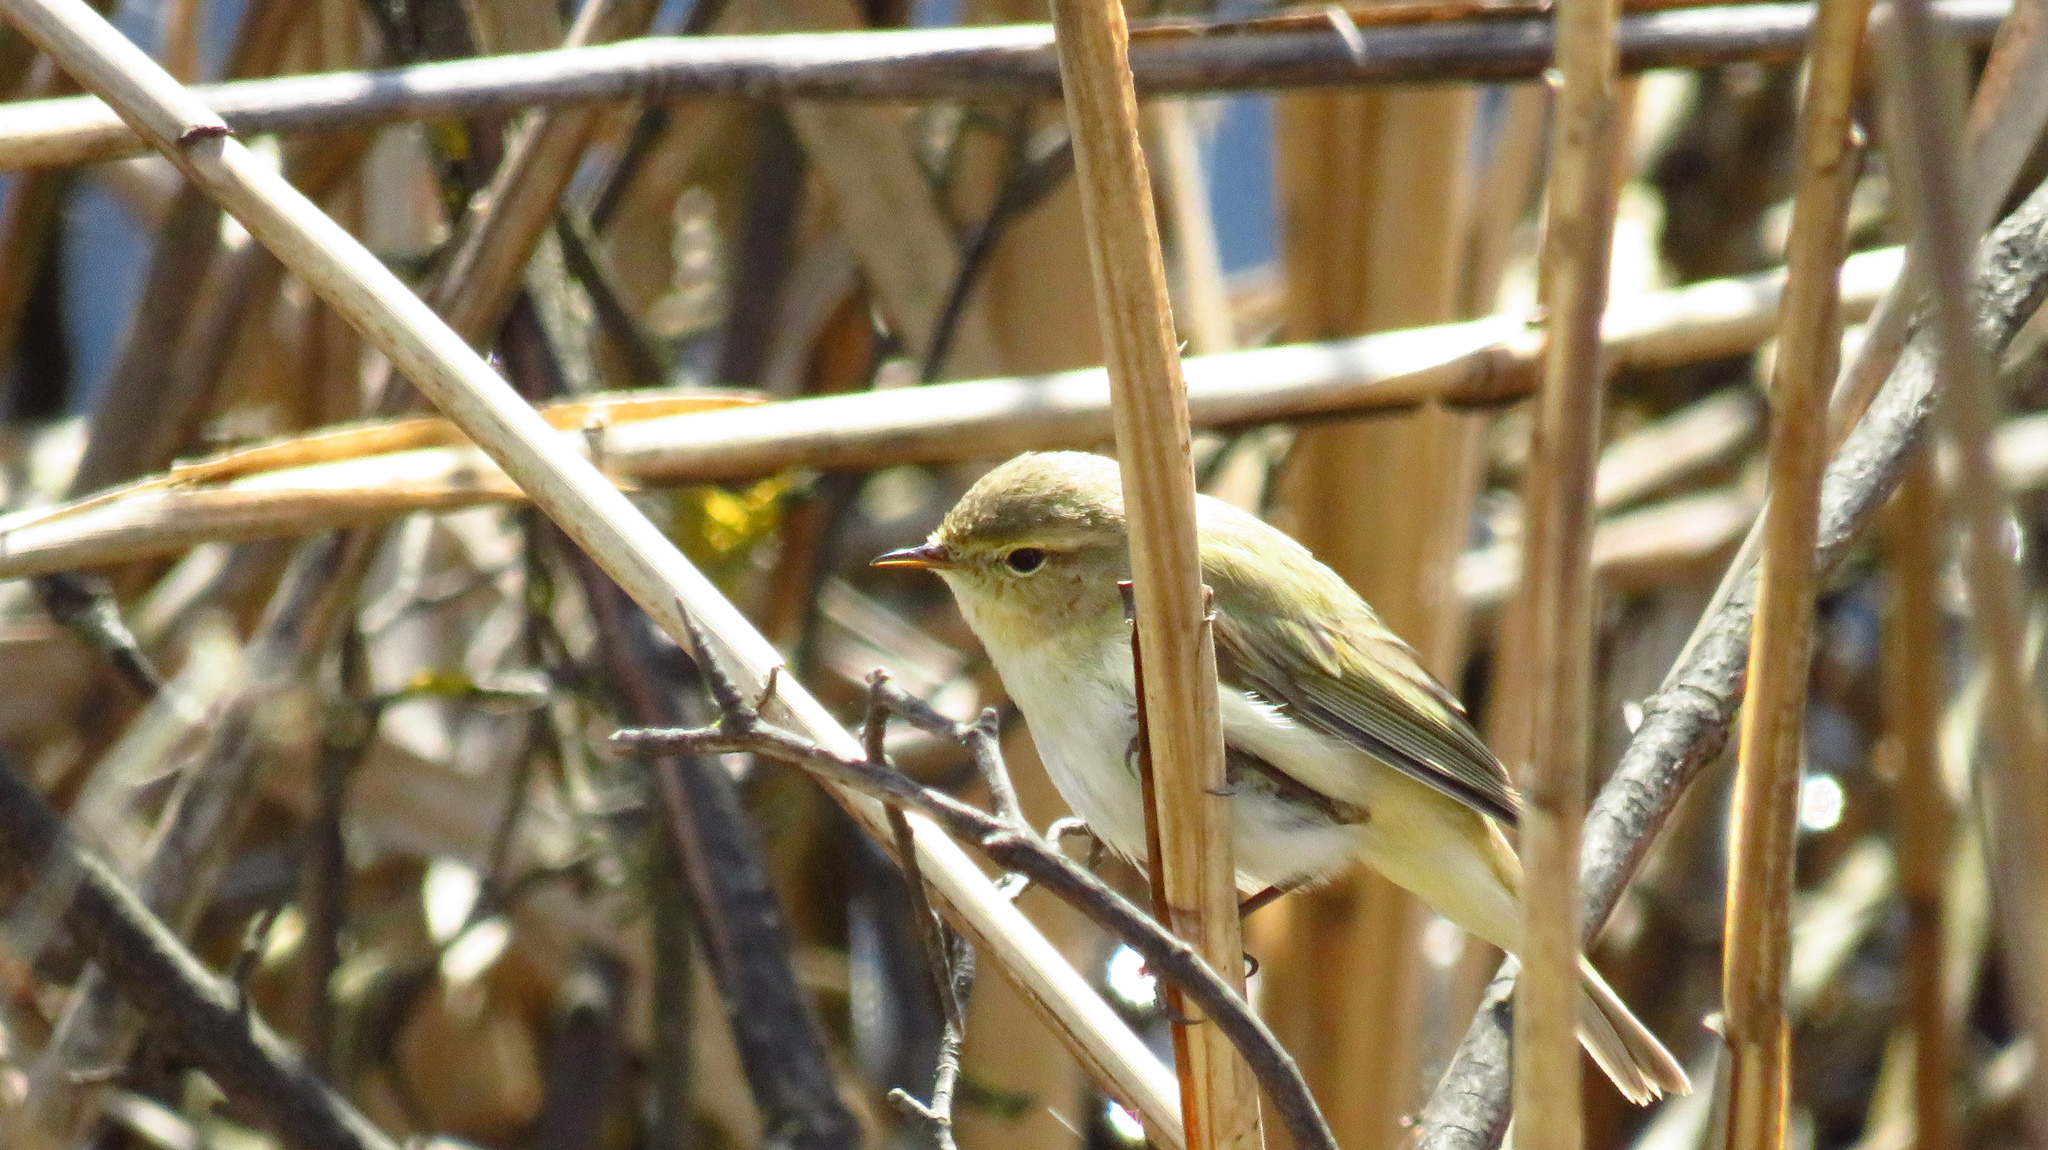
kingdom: Animalia
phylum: Chordata
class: Aves
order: Passeriformes
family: Phylloscopidae
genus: Phylloscopus
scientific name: Phylloscopus collybita
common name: Common chiffchaff
